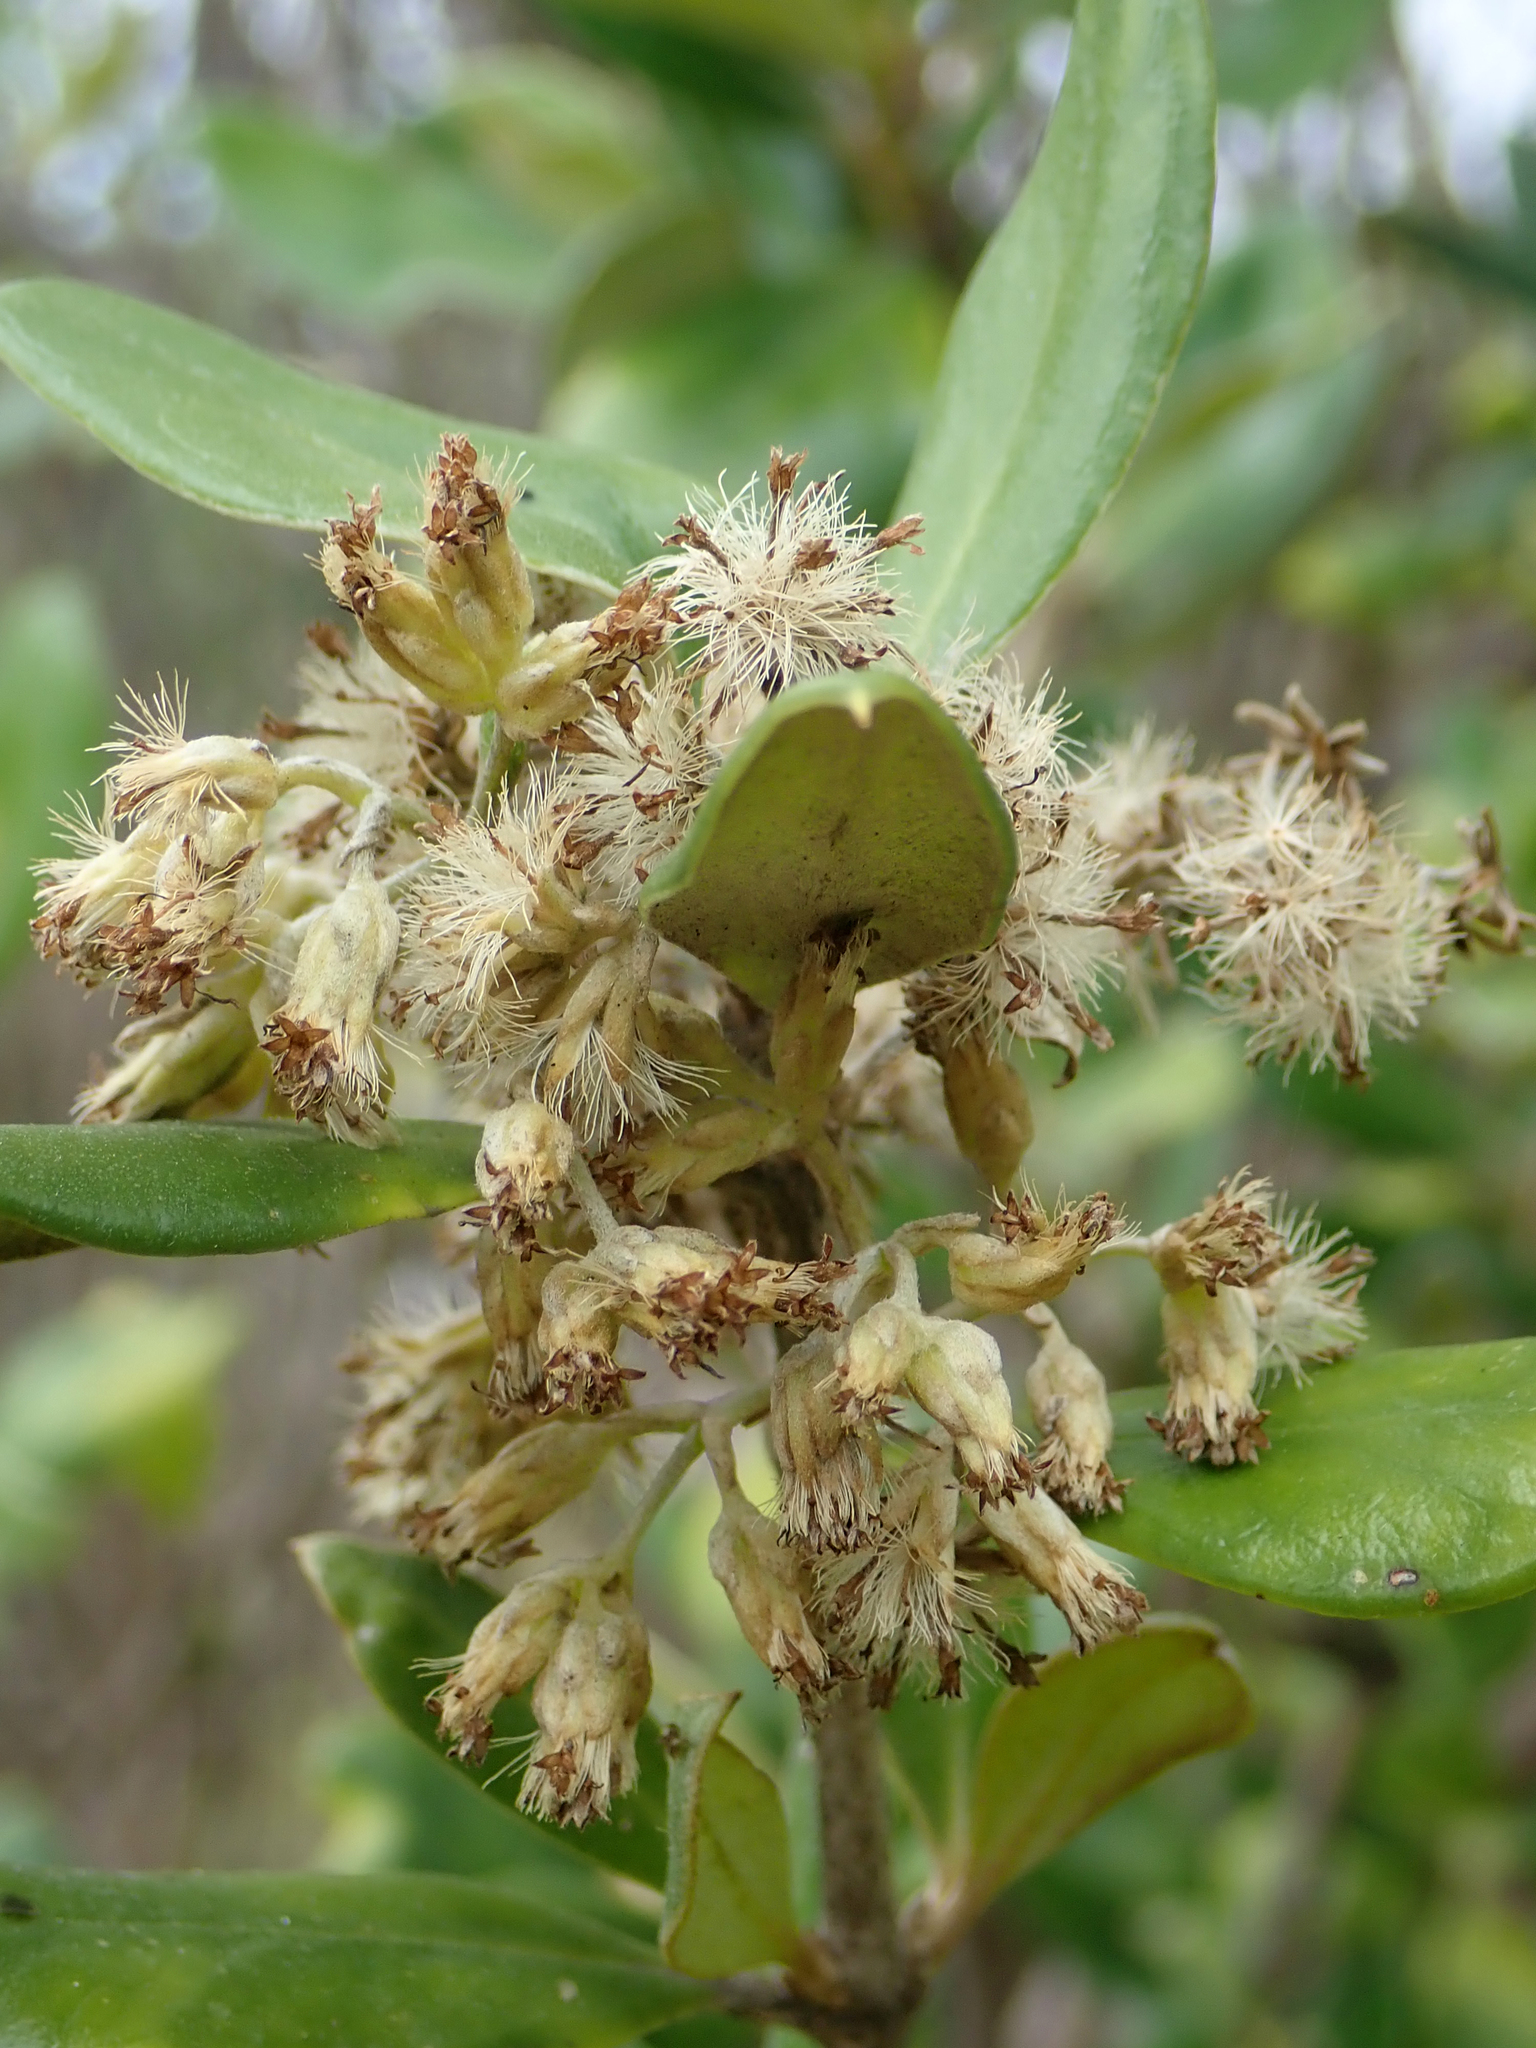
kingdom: Plantae
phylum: Tracheophyta
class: Magnoliopsida
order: Asterales
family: Asteraceae
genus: Olearia
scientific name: Olearia traversiorum
